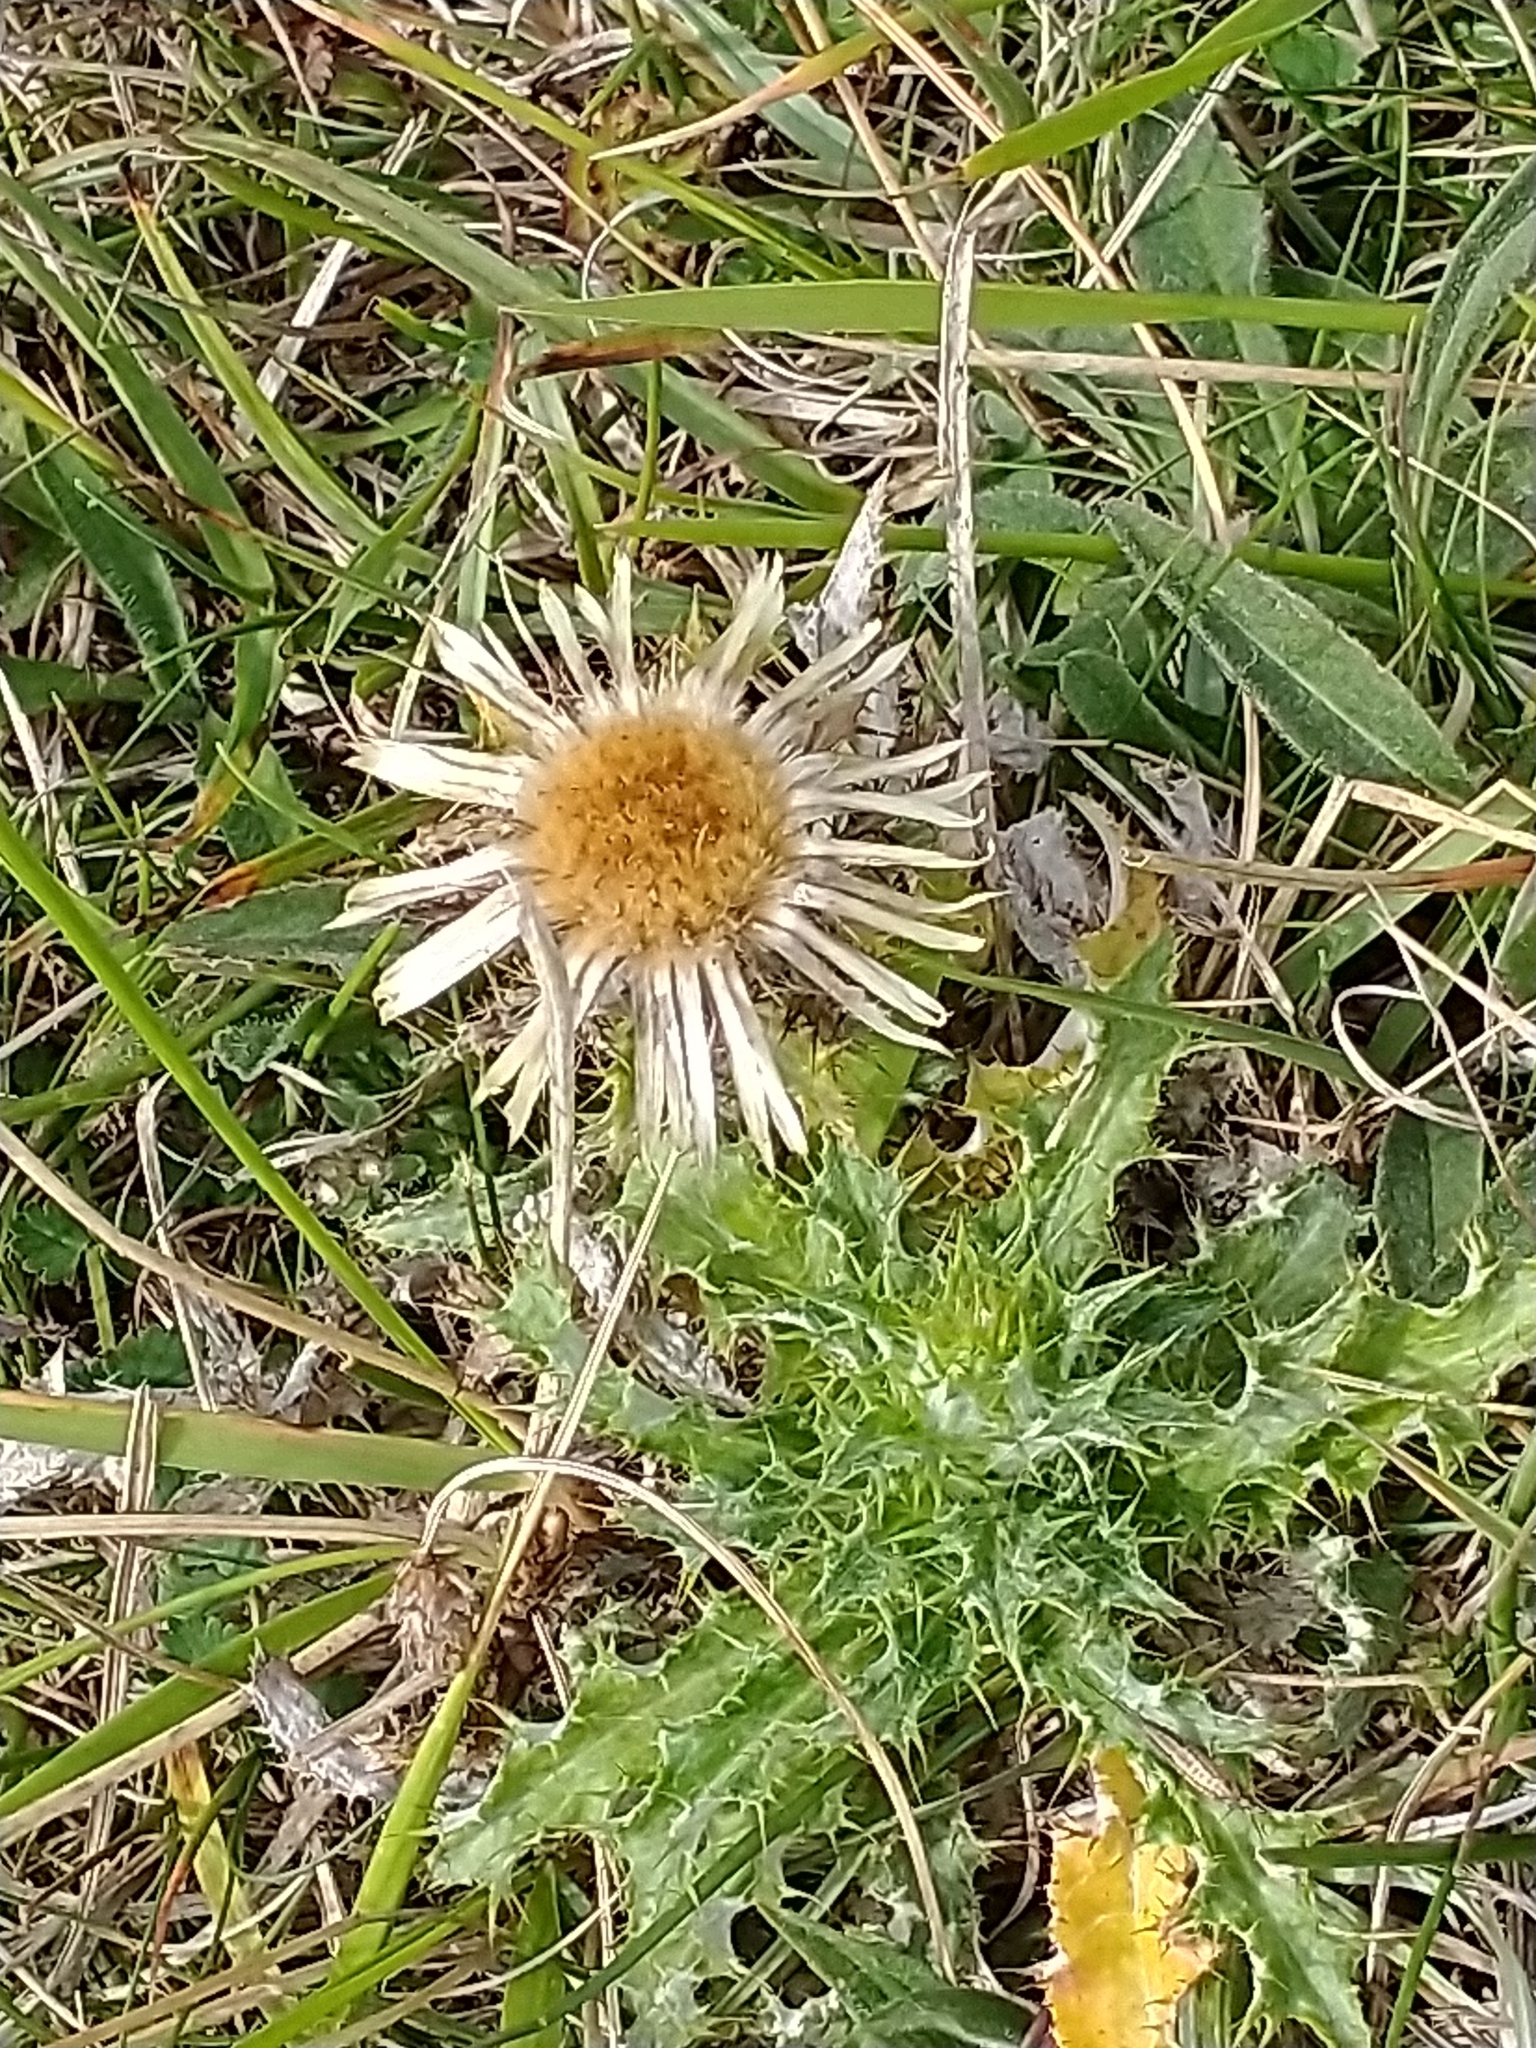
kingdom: Plantae
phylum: Tracheophyta
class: Magnoliopsida
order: Asterales
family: Asteraceae
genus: Carlina
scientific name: Carlina vulgaris
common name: Carline thistle
